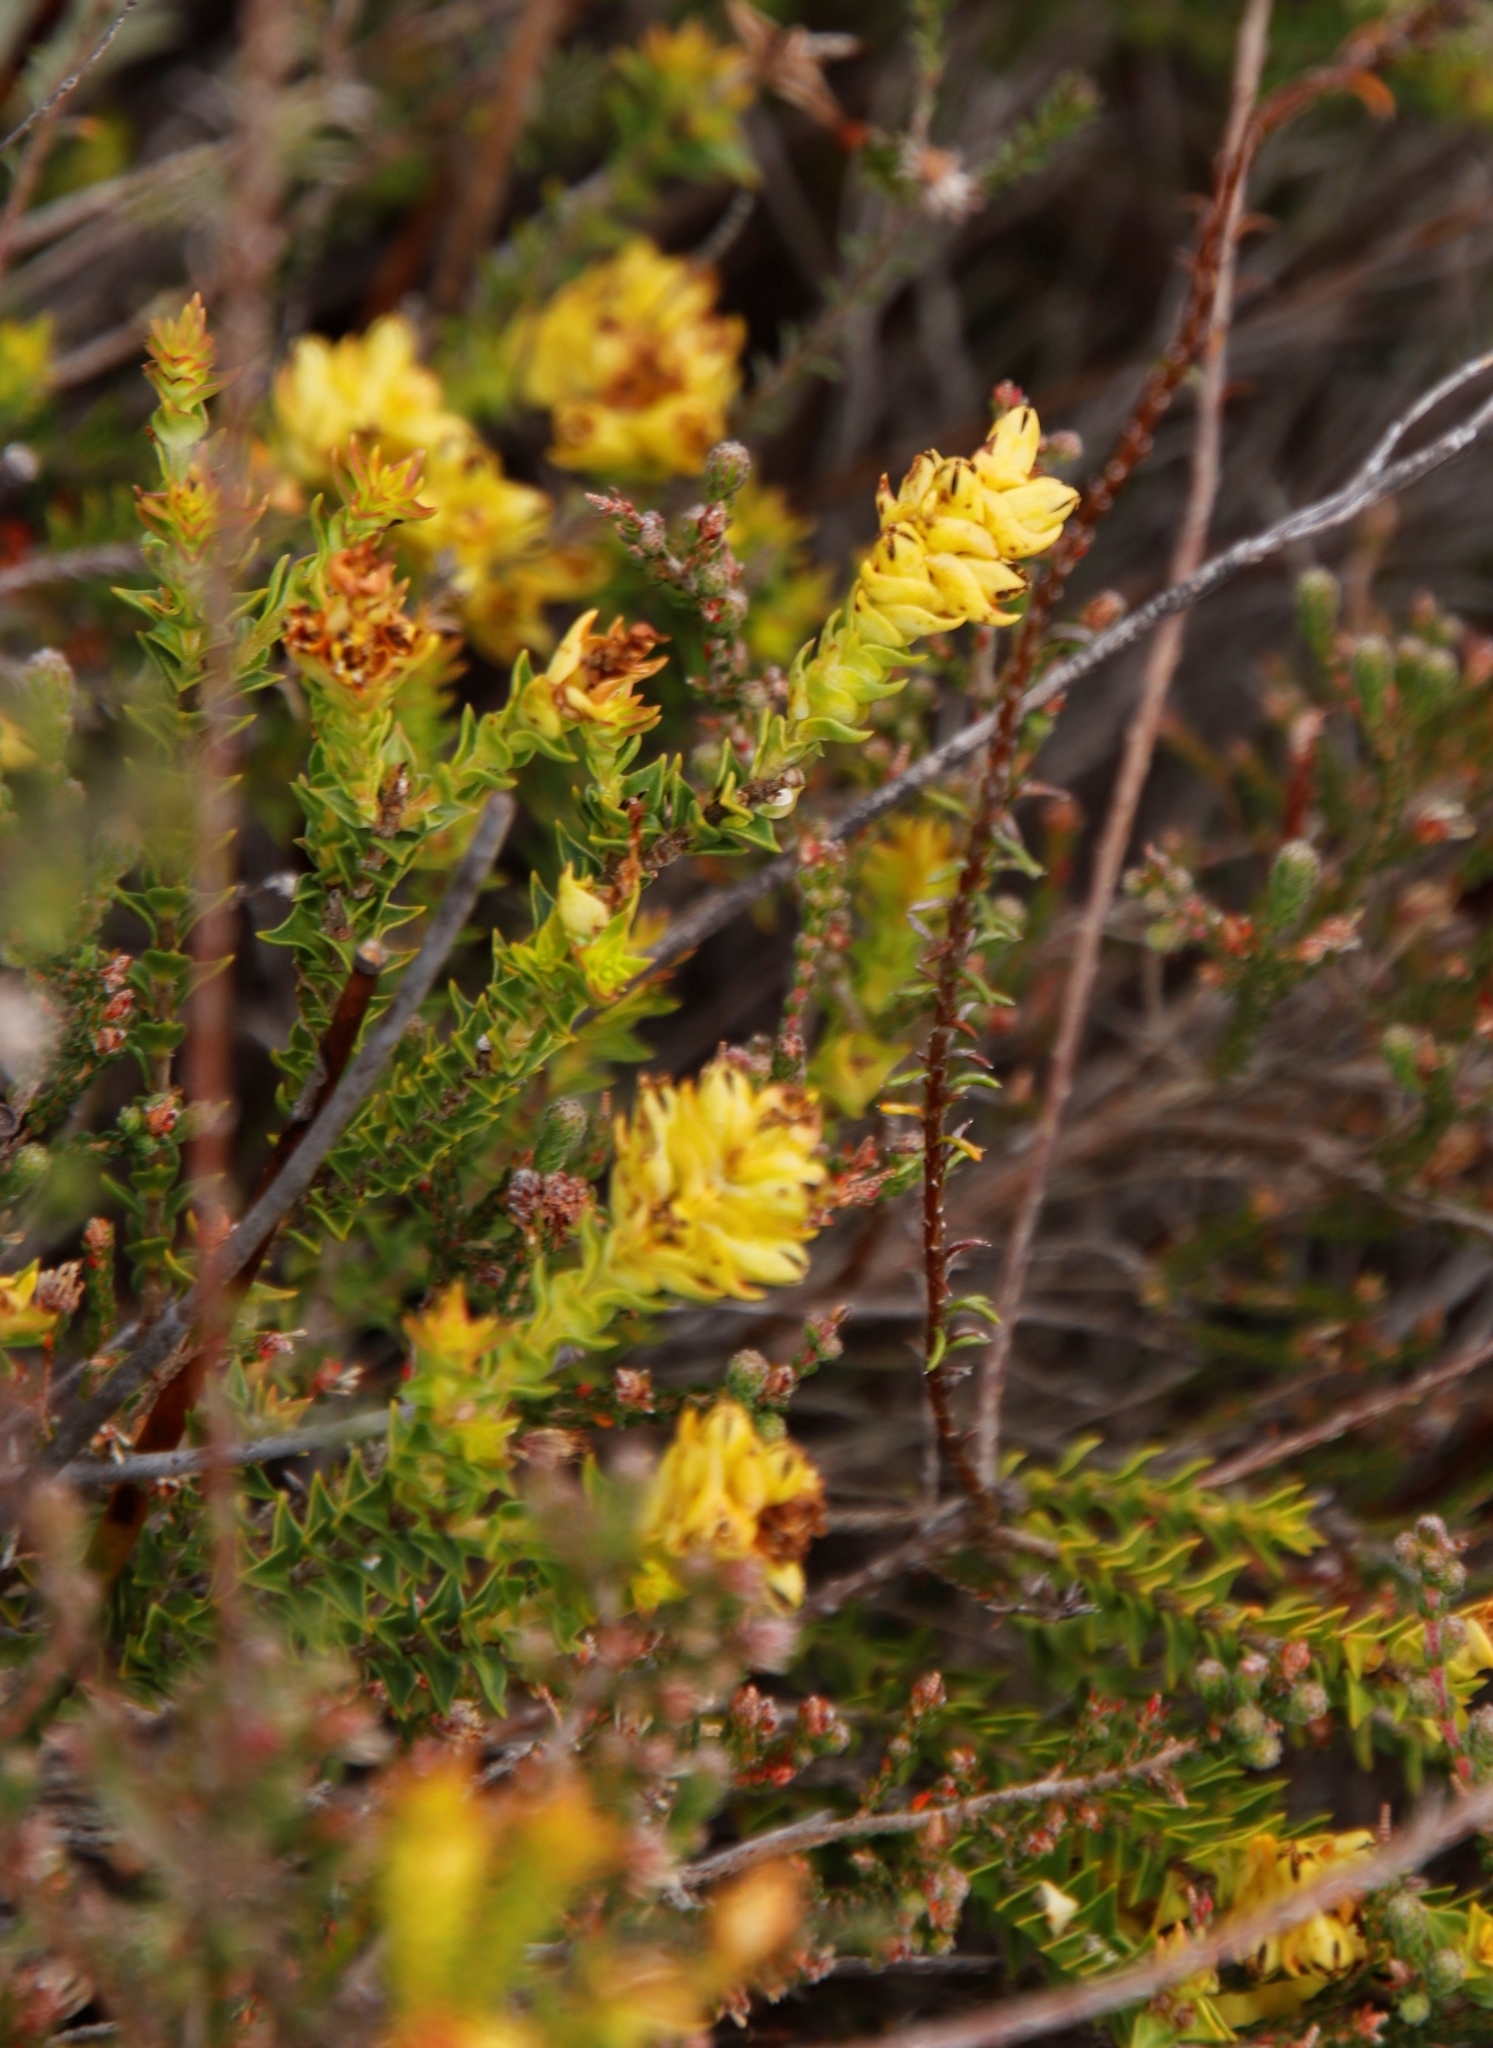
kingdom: Plantae
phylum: Tracheophyta
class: Magnoliopsida
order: Myrtales
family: Penaeaceae
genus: Penaea
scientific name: Penaea mucronata
